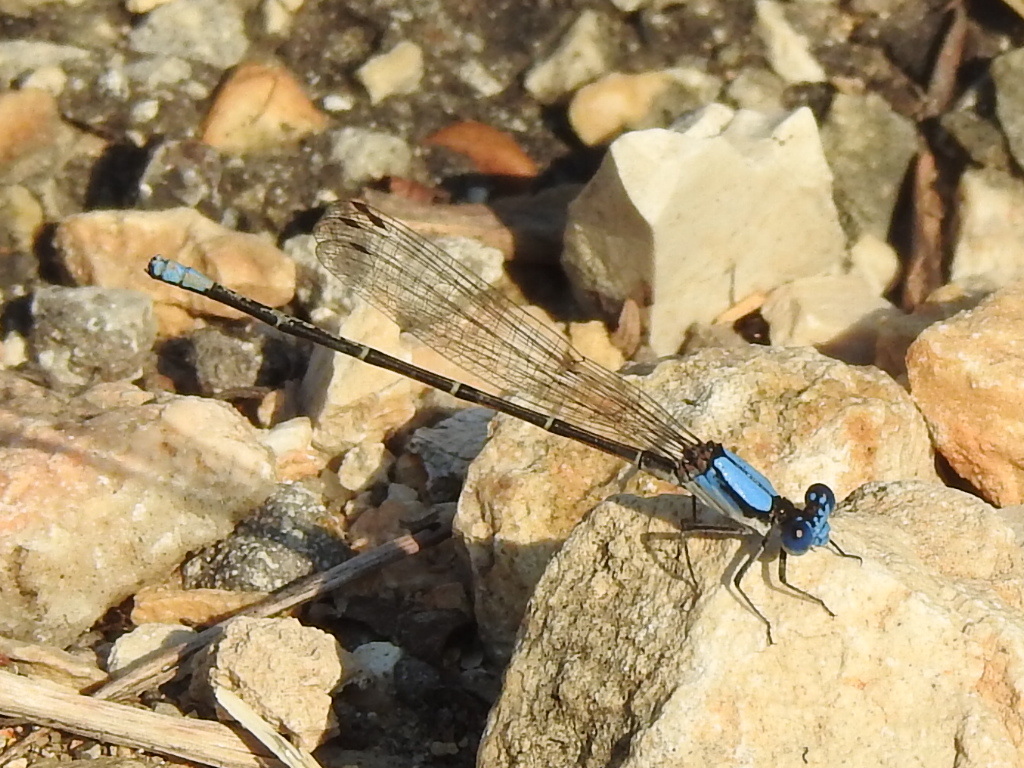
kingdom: Animalia
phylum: Arthropoda
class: Insecta
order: Odonata
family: Coenagrionidae
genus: Argia
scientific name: Argia apicalis
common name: Blue-fronted dancer
